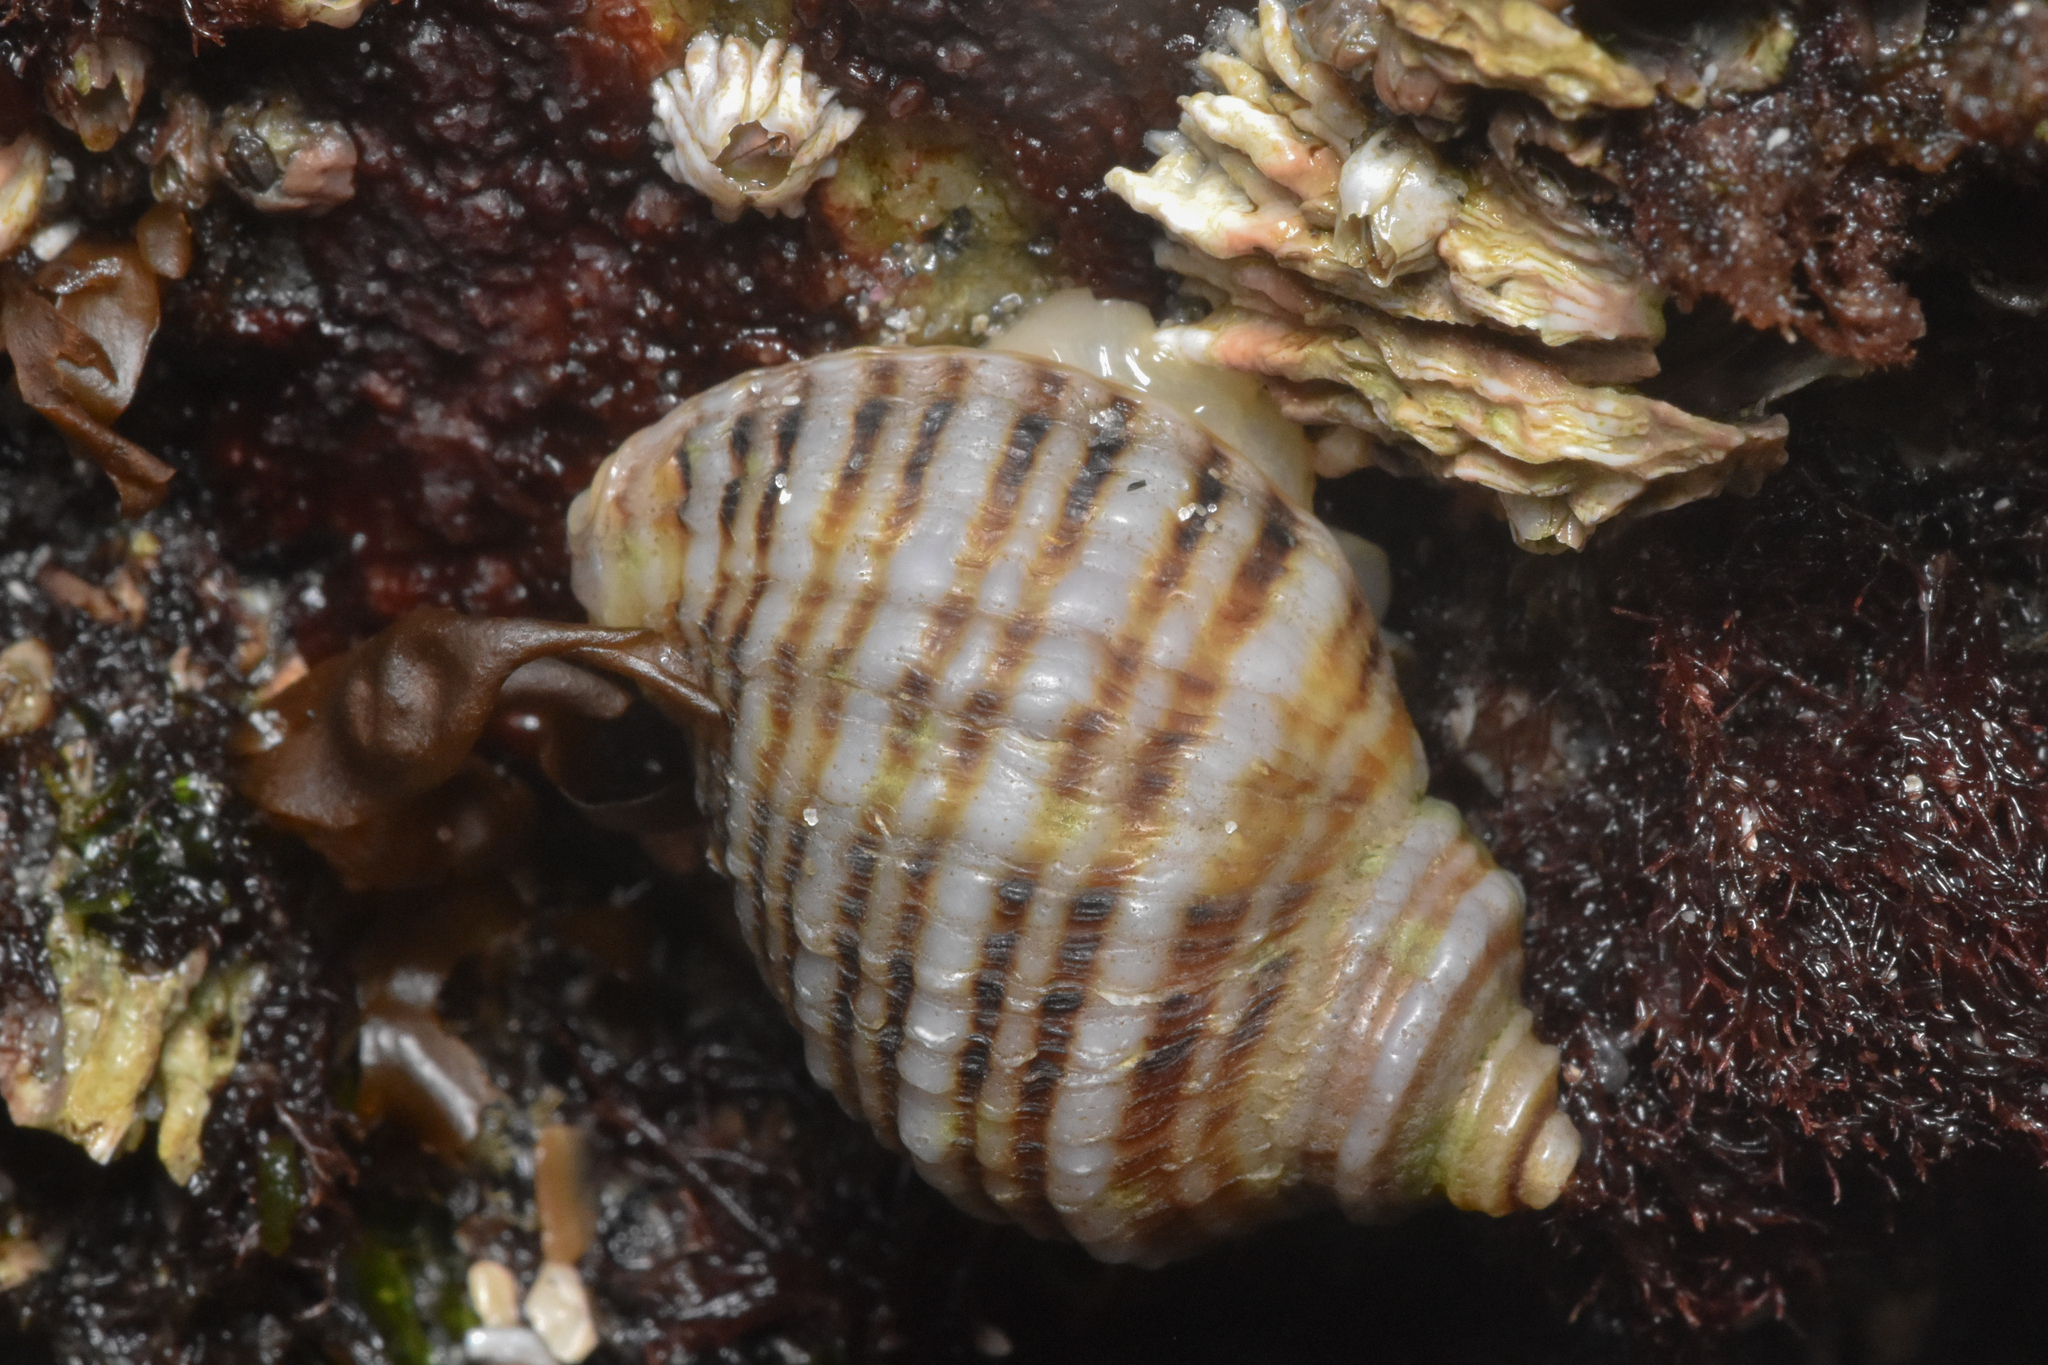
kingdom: Animalia
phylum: Mollusca
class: Gastropoda
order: Neogastropoda
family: Muricidae
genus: Nucella
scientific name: Nucella ostrina
